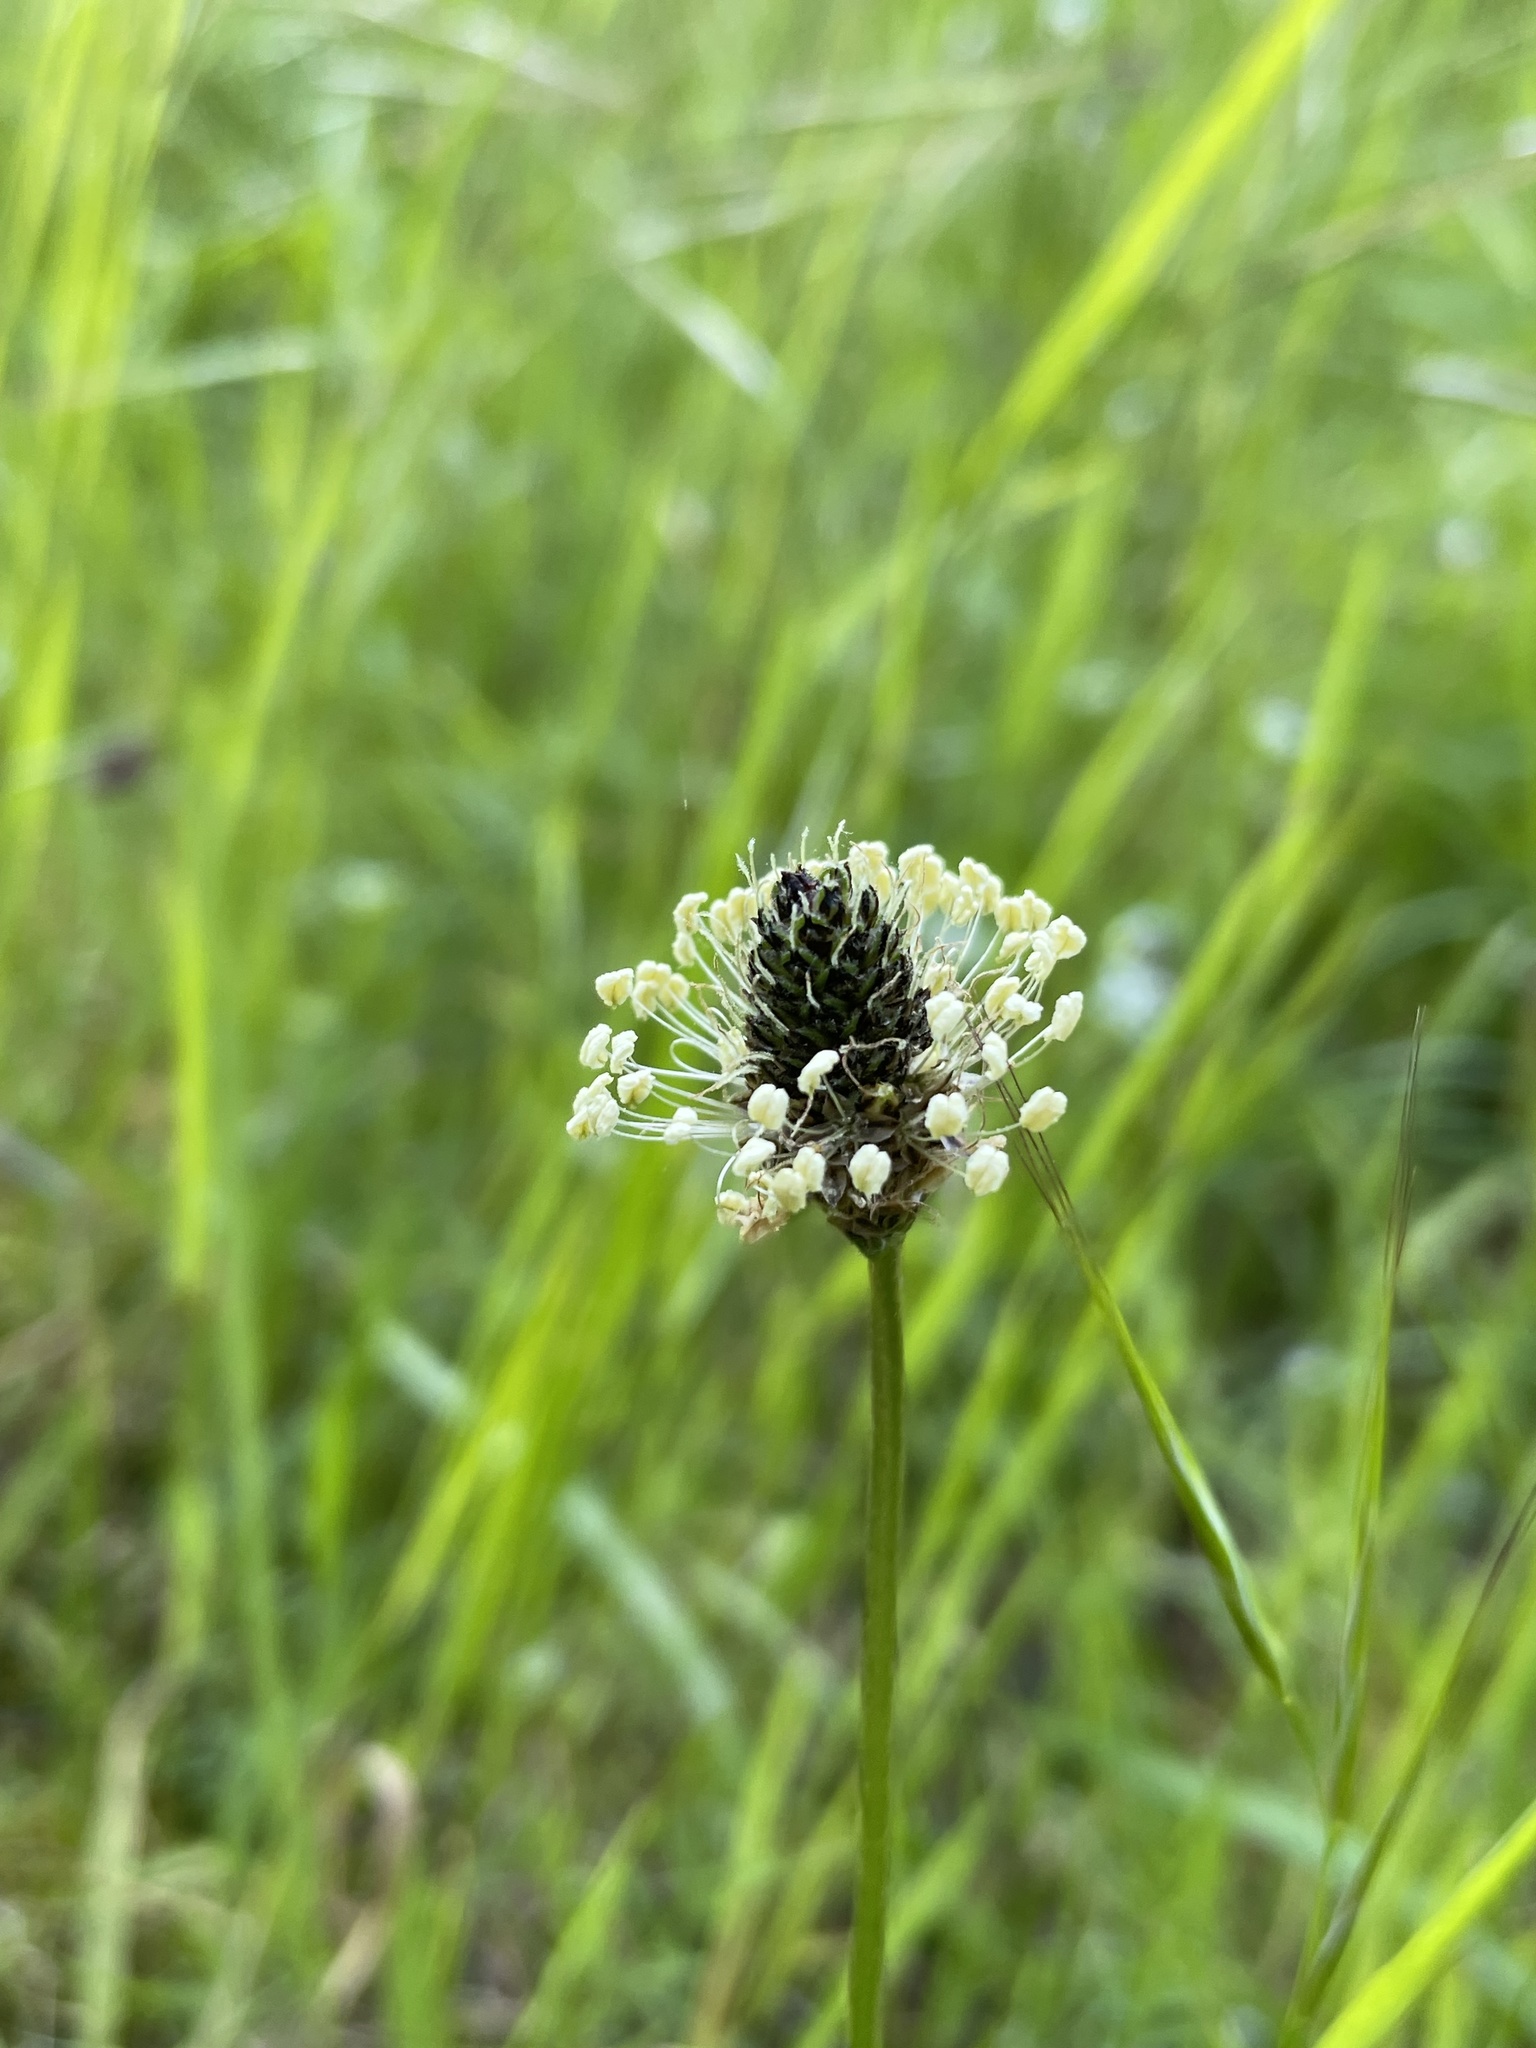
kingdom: Plantae
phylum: Tracheophyta
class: Magnoliopsida
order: Lamiales
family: Plantaginaceae
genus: Plantago
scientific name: Plantago lanceolata
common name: Ribwort plantain
